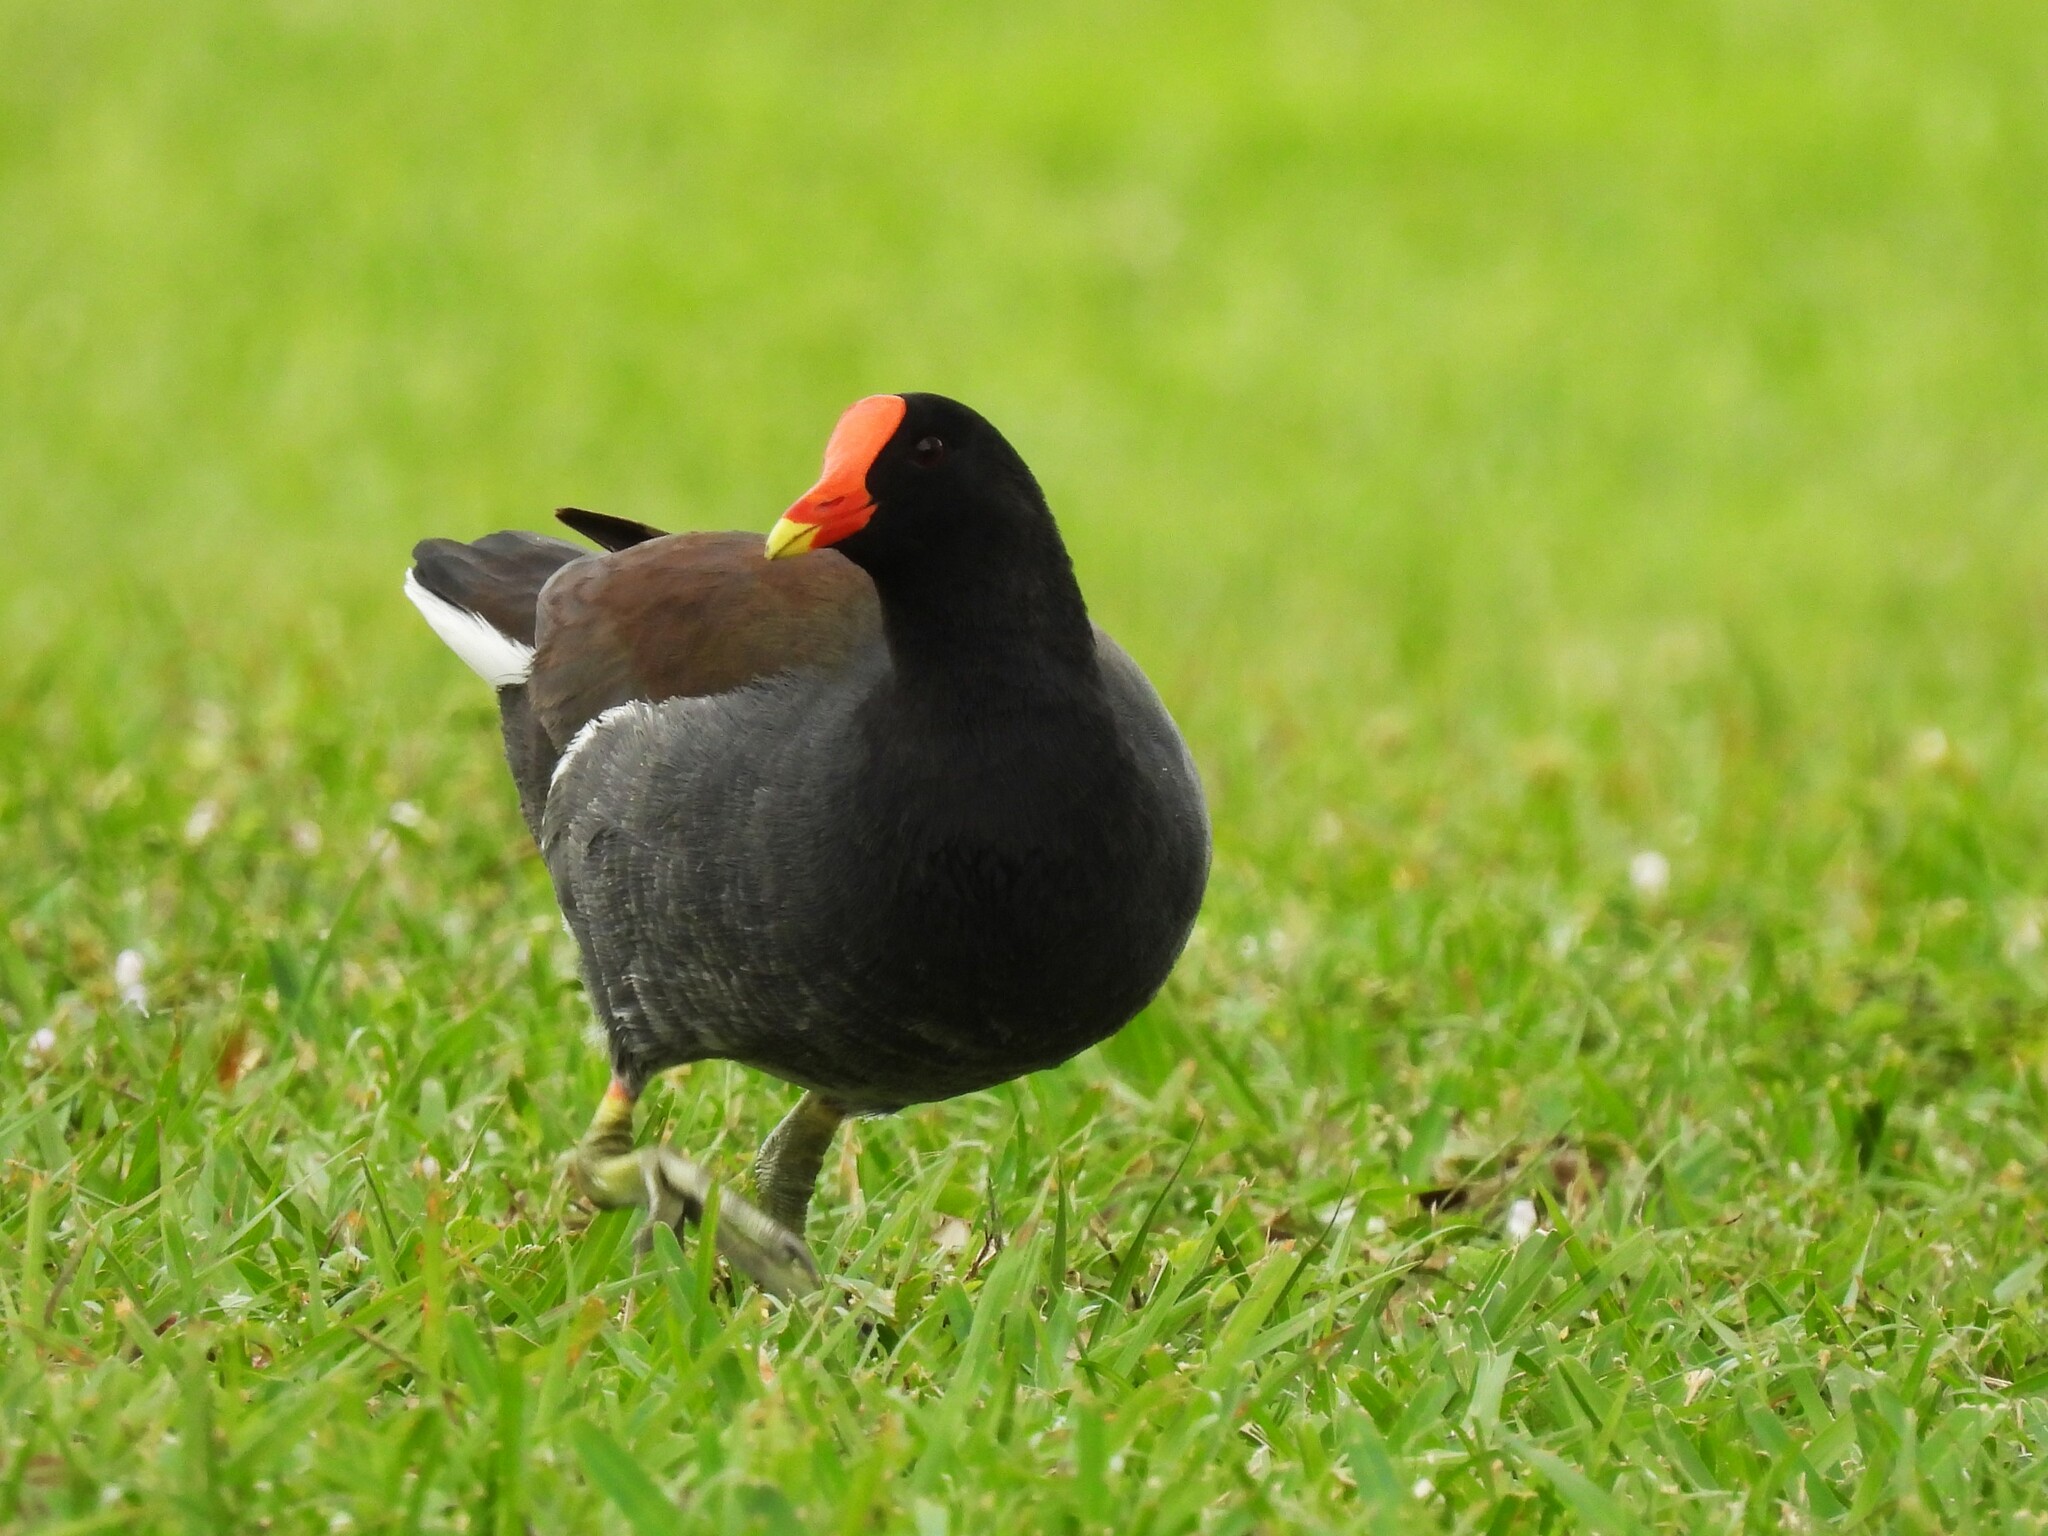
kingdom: Animalia
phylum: Chordata
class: Aves
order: Gruiformes
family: Rallidae
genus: Gallinula
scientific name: Gallinula chloropus
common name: Common moorhen
